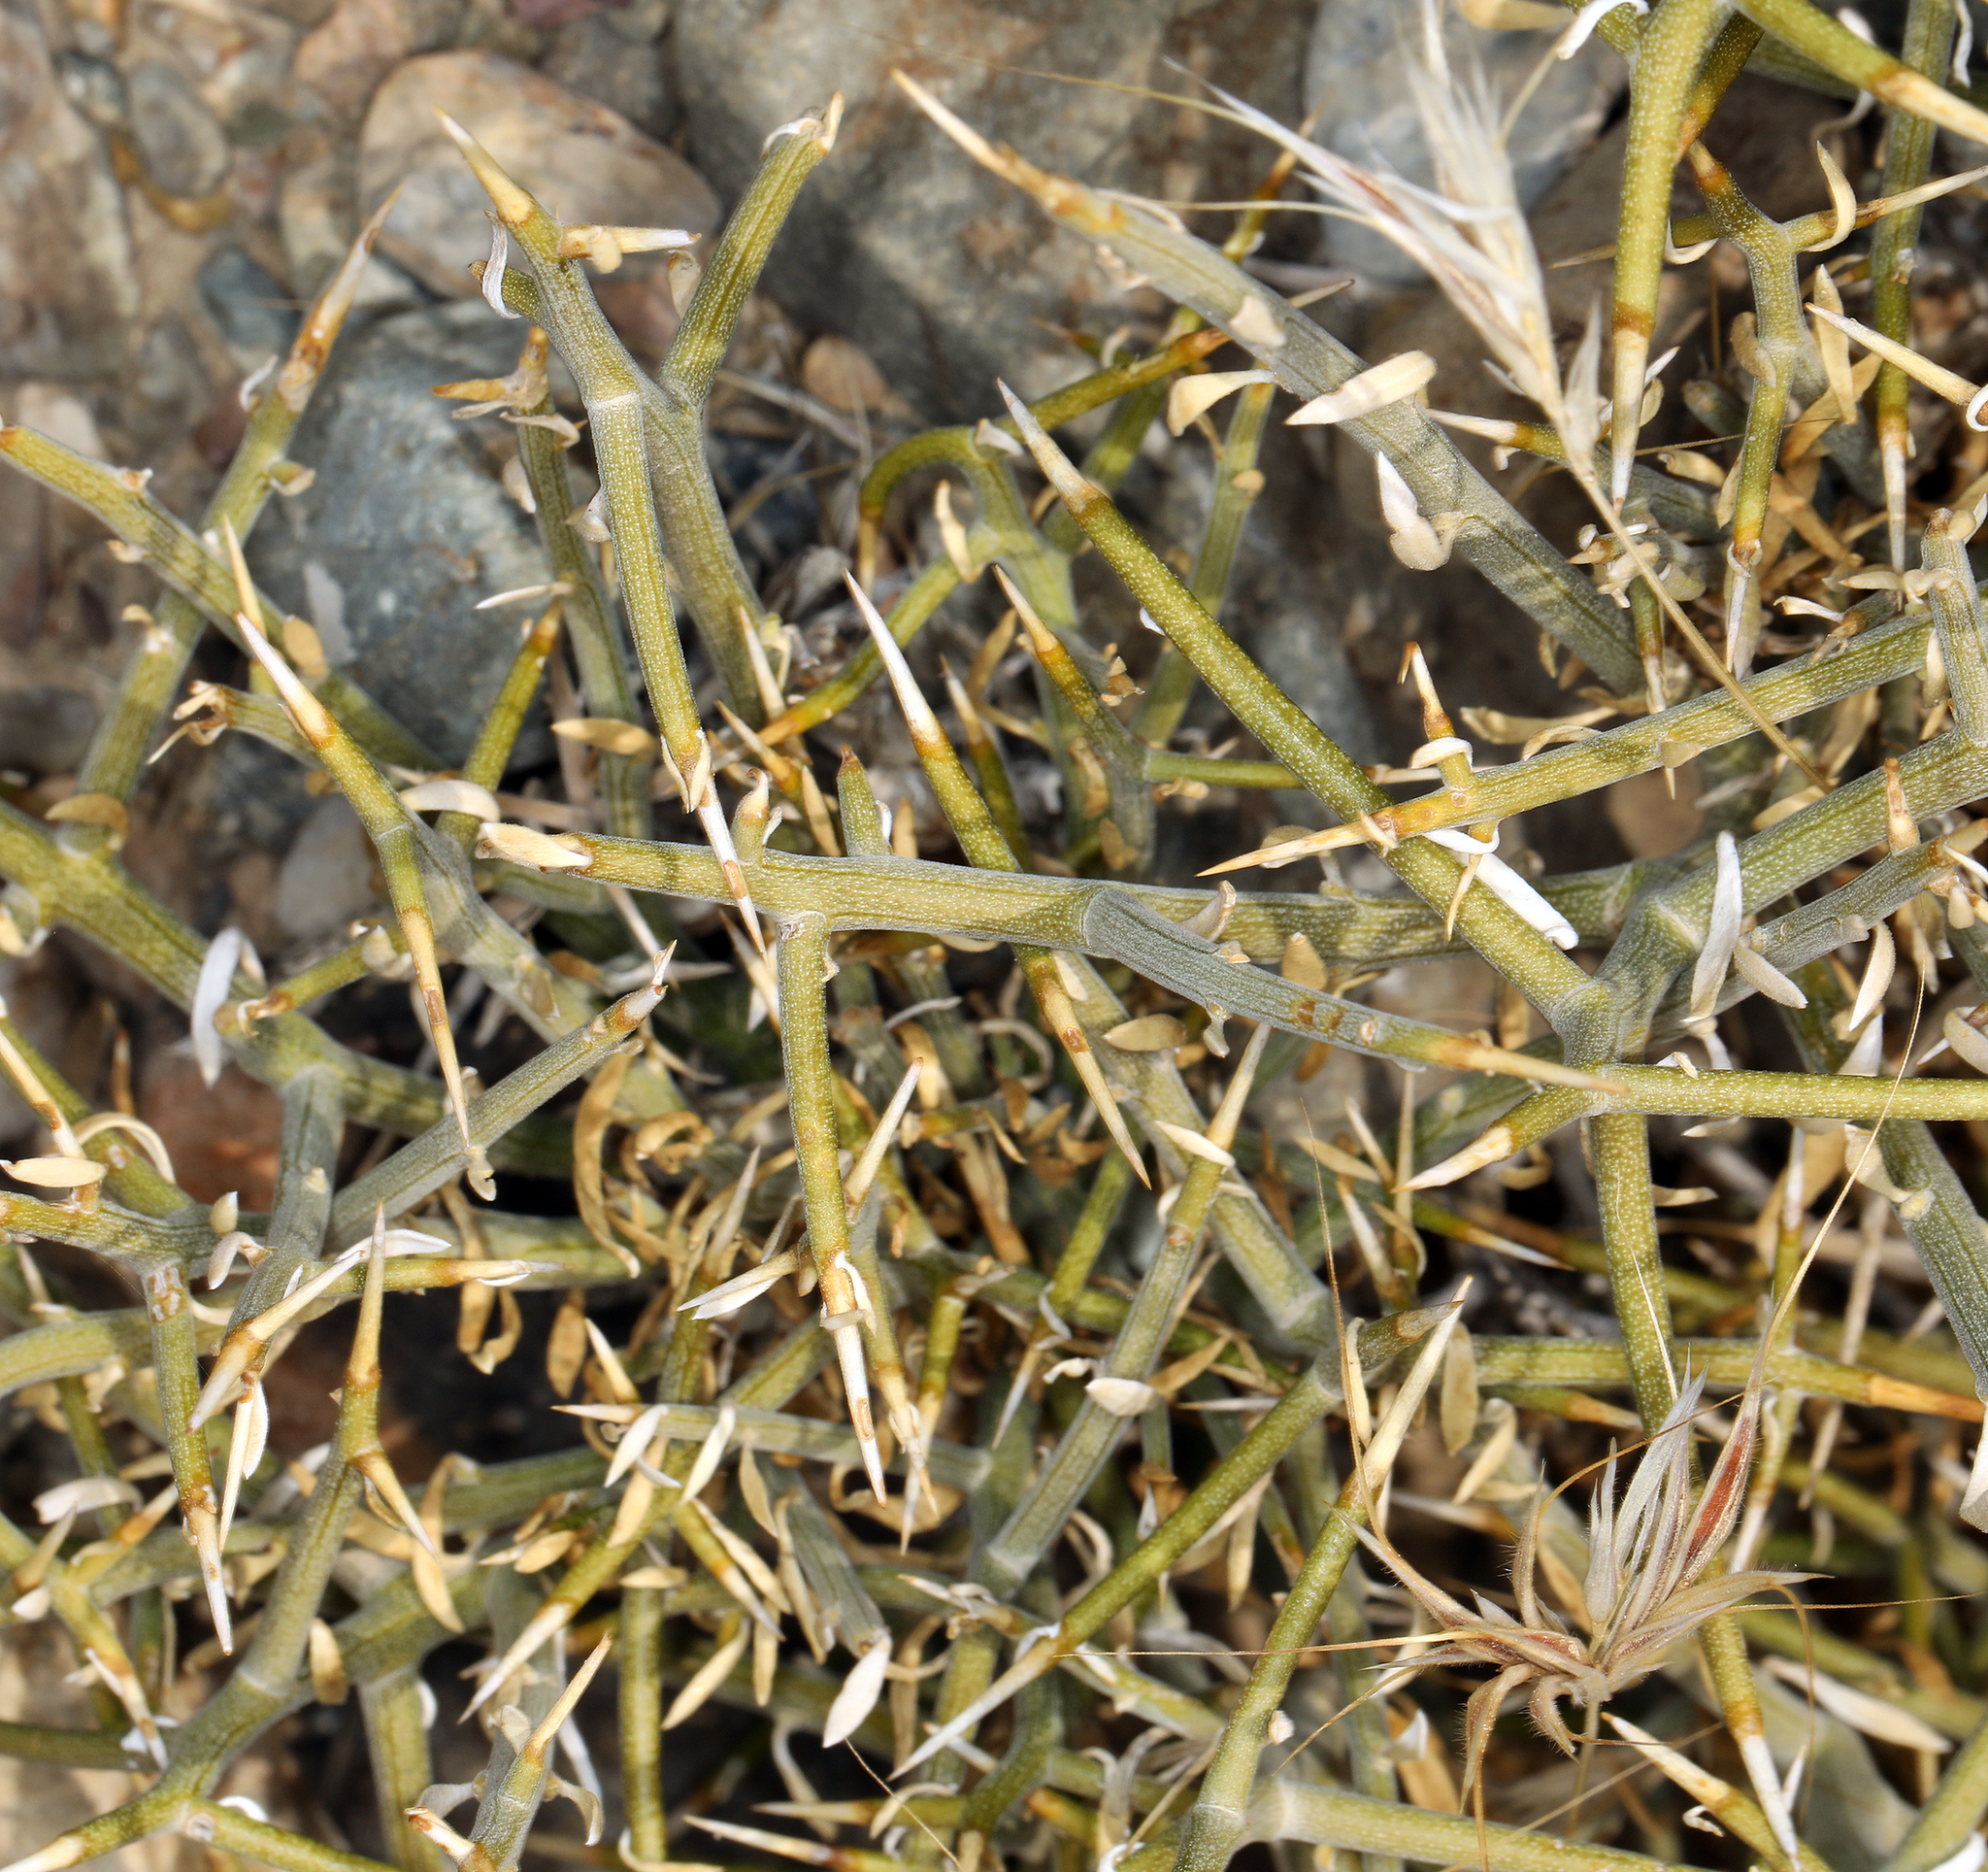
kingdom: Plantae
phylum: Tracheophyta
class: Magnoliopsida
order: Lamiales
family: Oleaceae
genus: Menodora
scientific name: Menodora spinescens
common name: Spiny menodora
